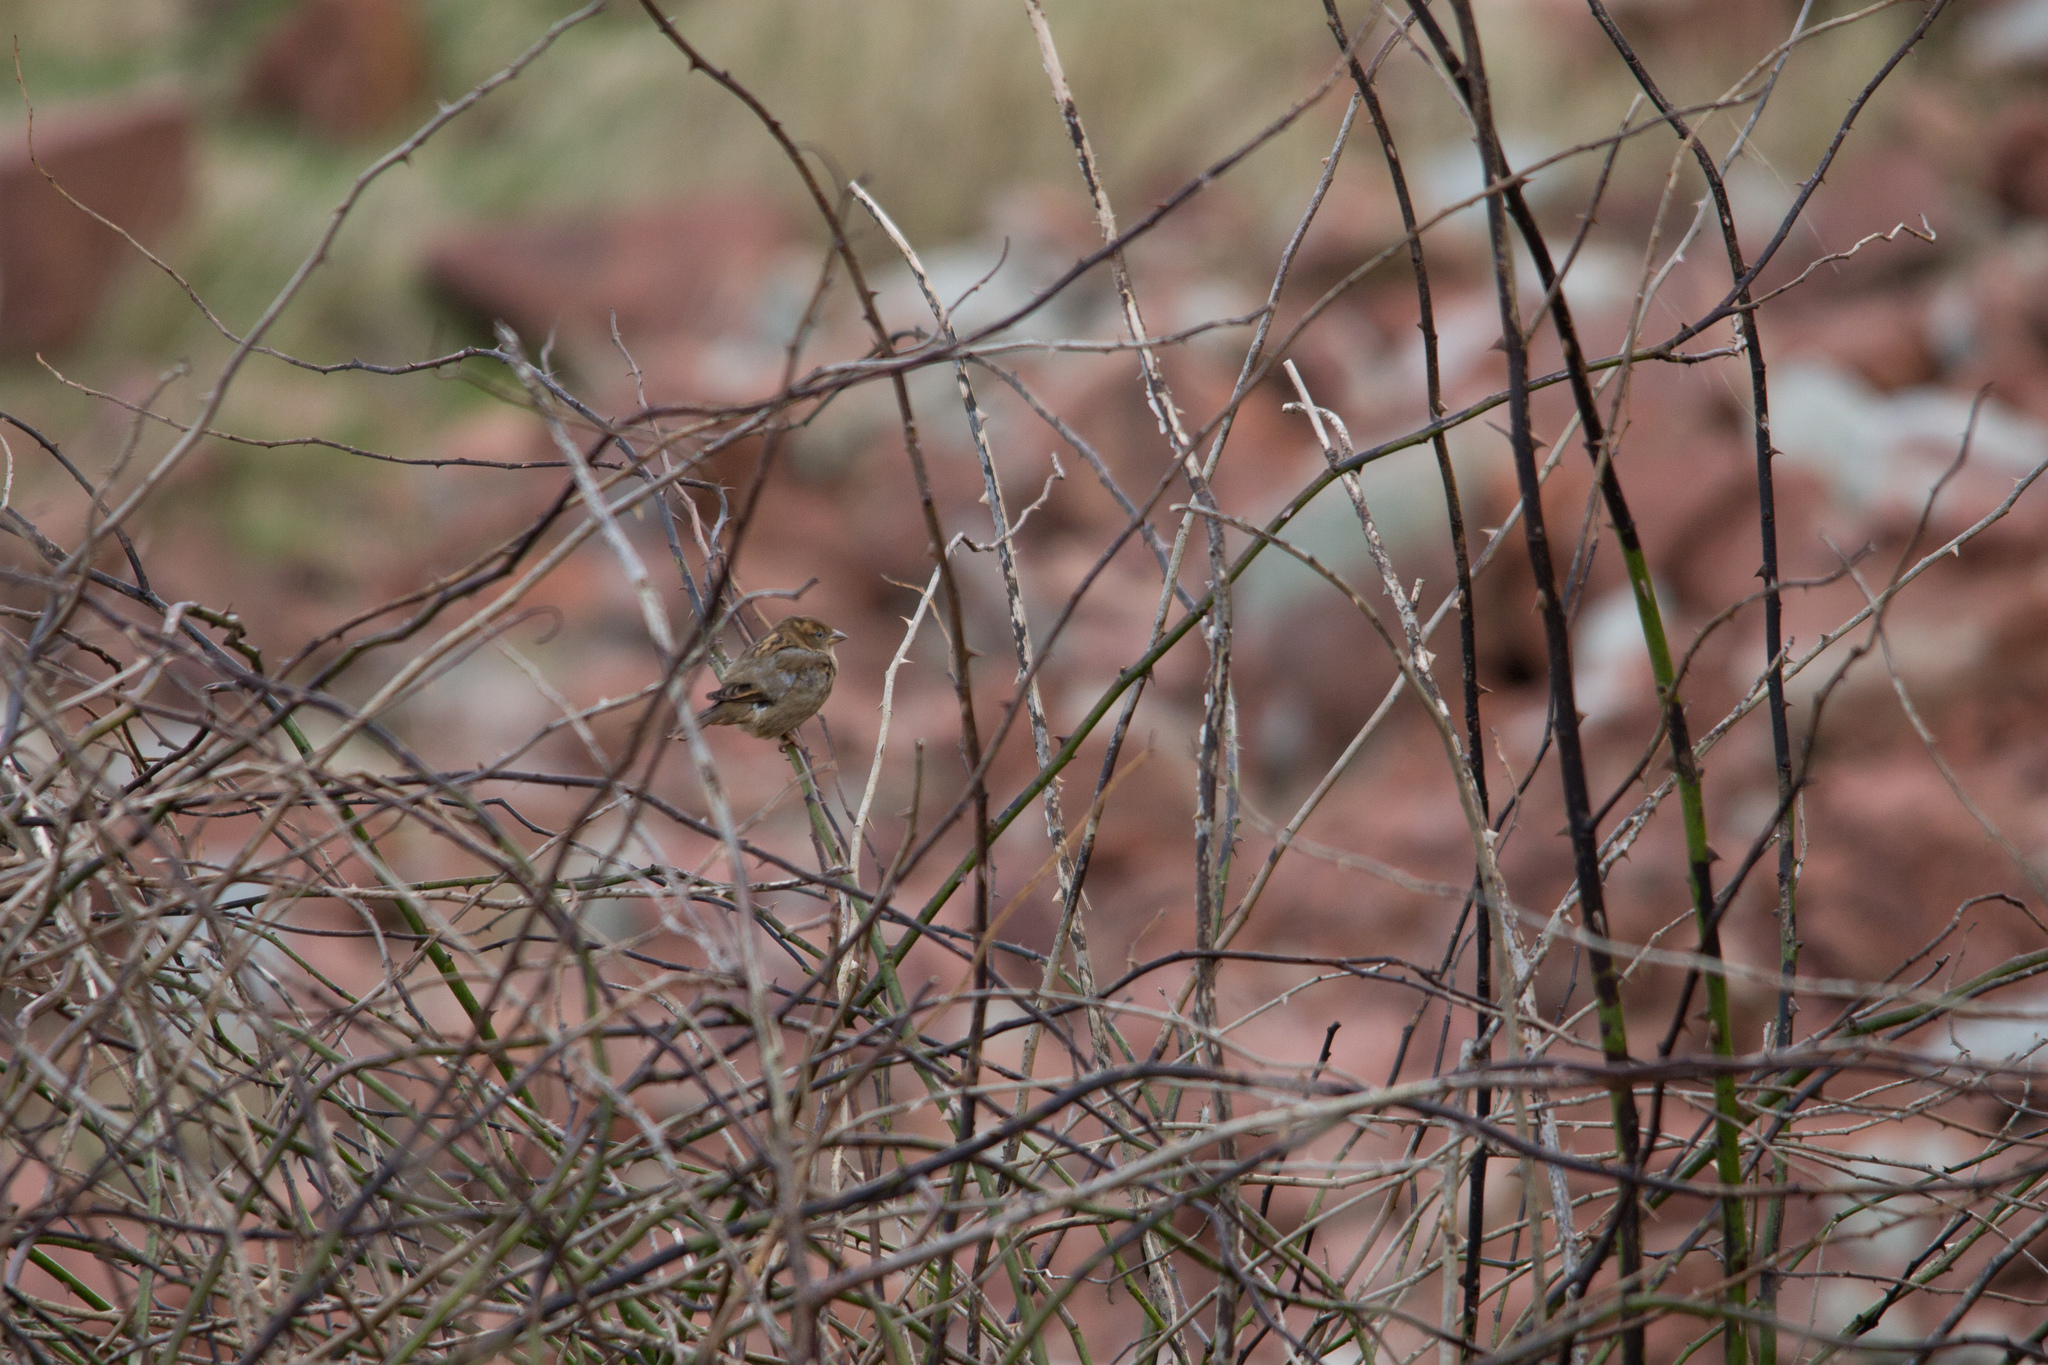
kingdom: Animalia
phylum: Chordata
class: Aves
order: Passeriformes
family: Passeridae
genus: Passer
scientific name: Passer domesticus
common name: House sparrow
